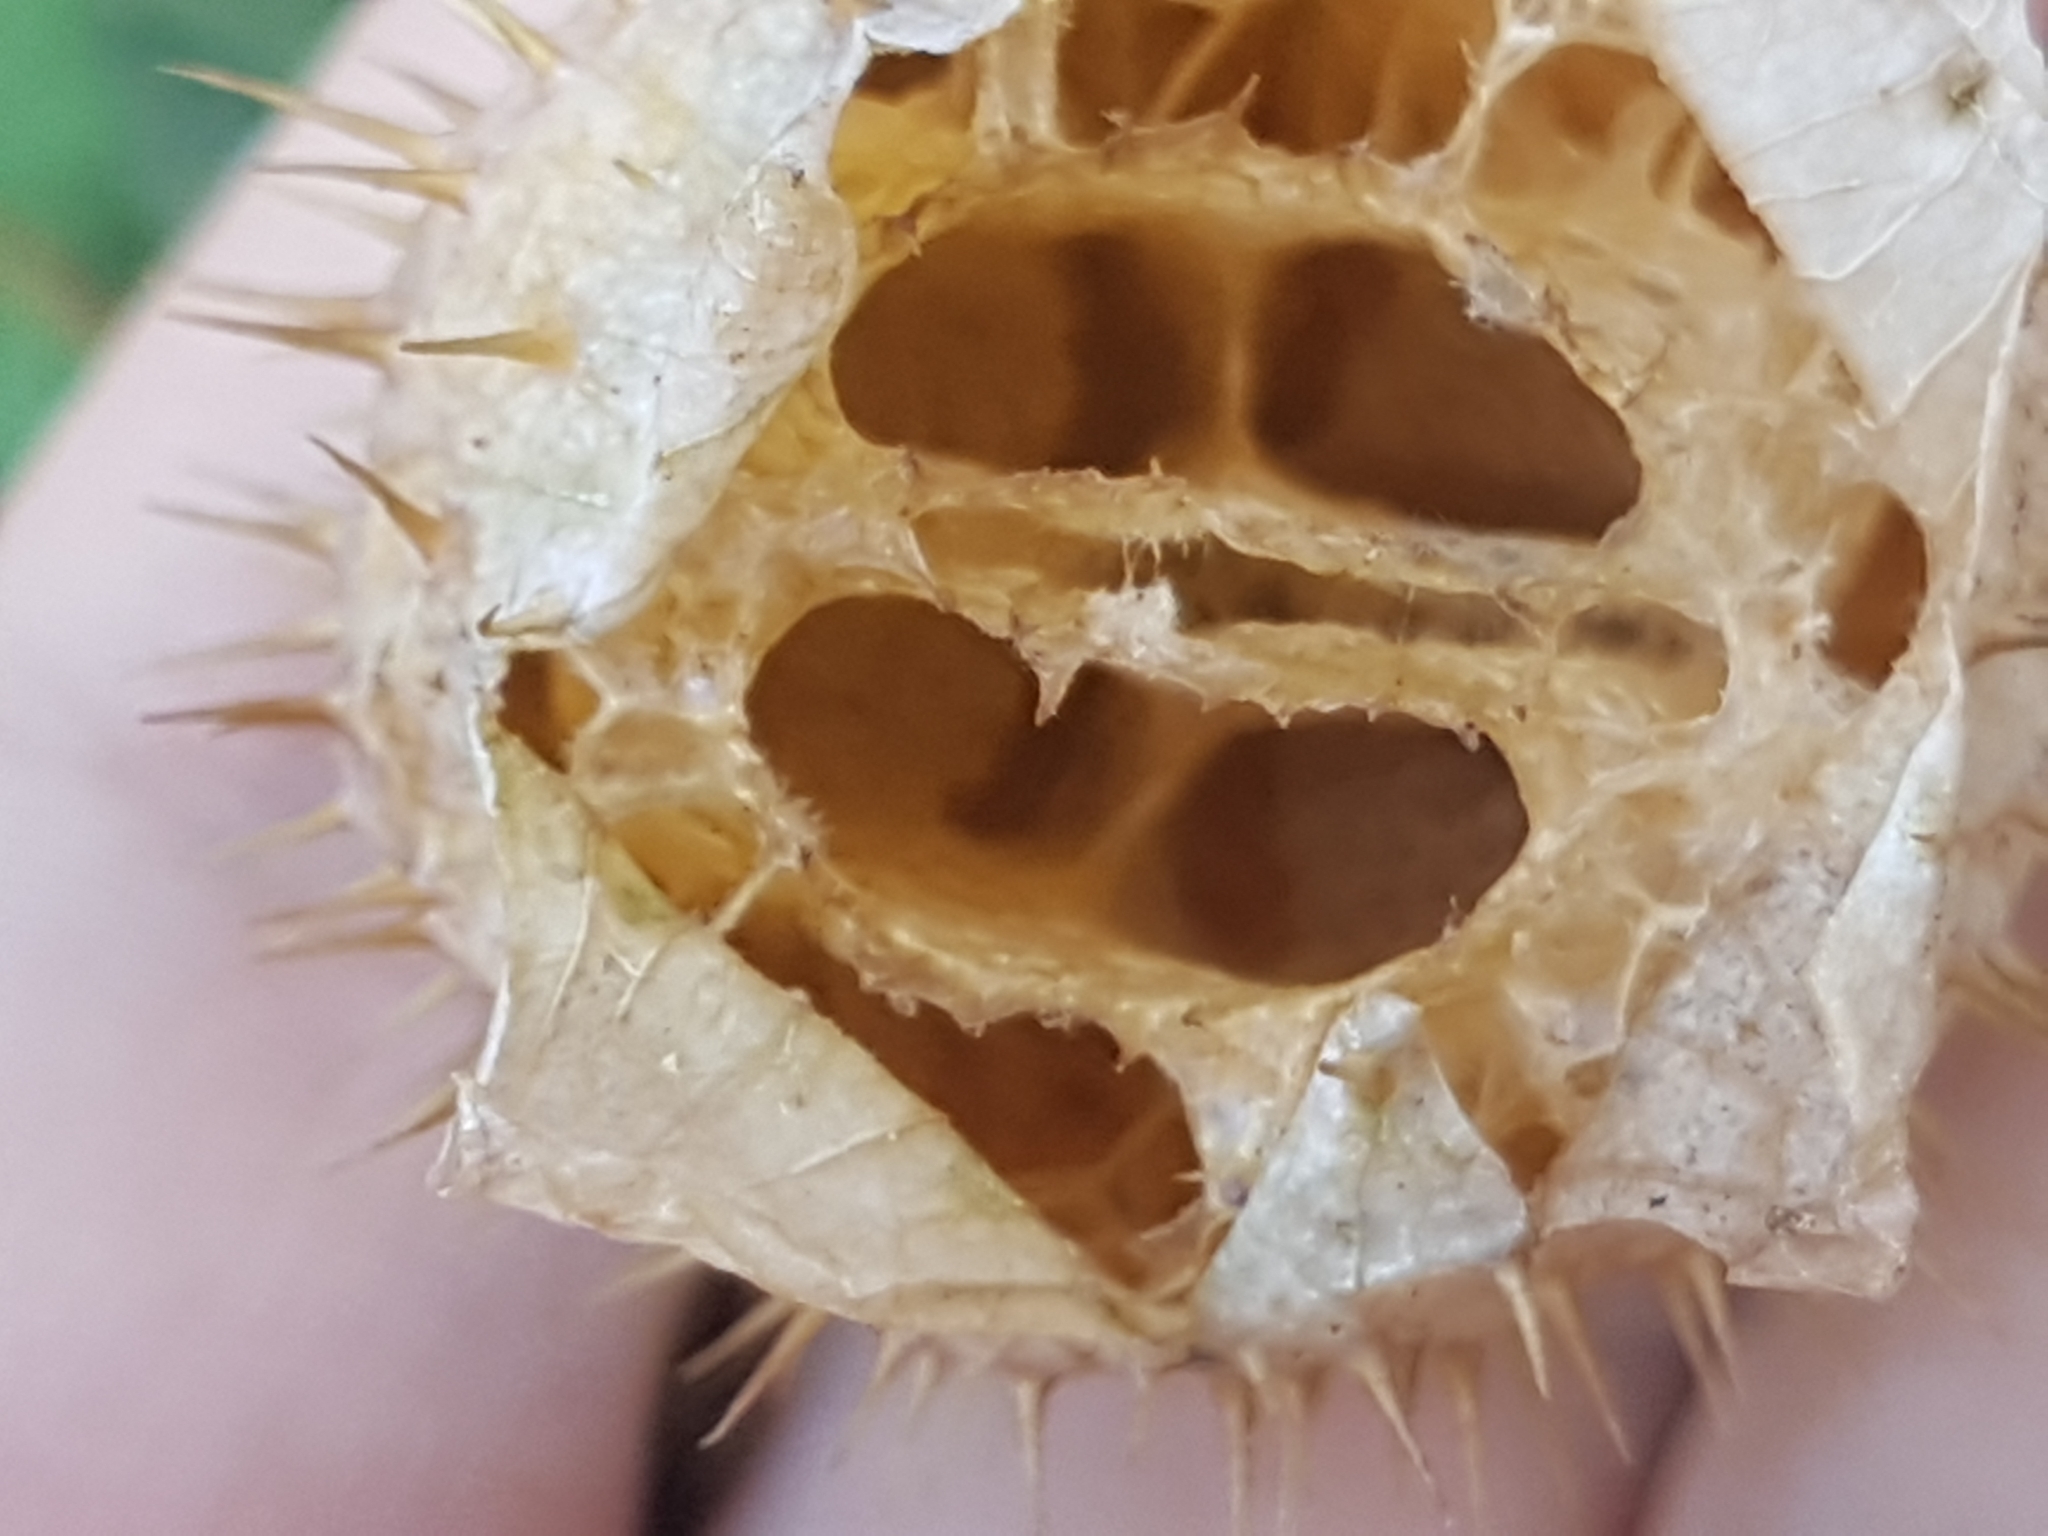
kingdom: Plantae
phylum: Tracheophyta
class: Magnoliopsida
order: Cucurbitales
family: Cucurbitaceae
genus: Echinocystis
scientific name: Echinocystis lobata
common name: Wild cucumber
